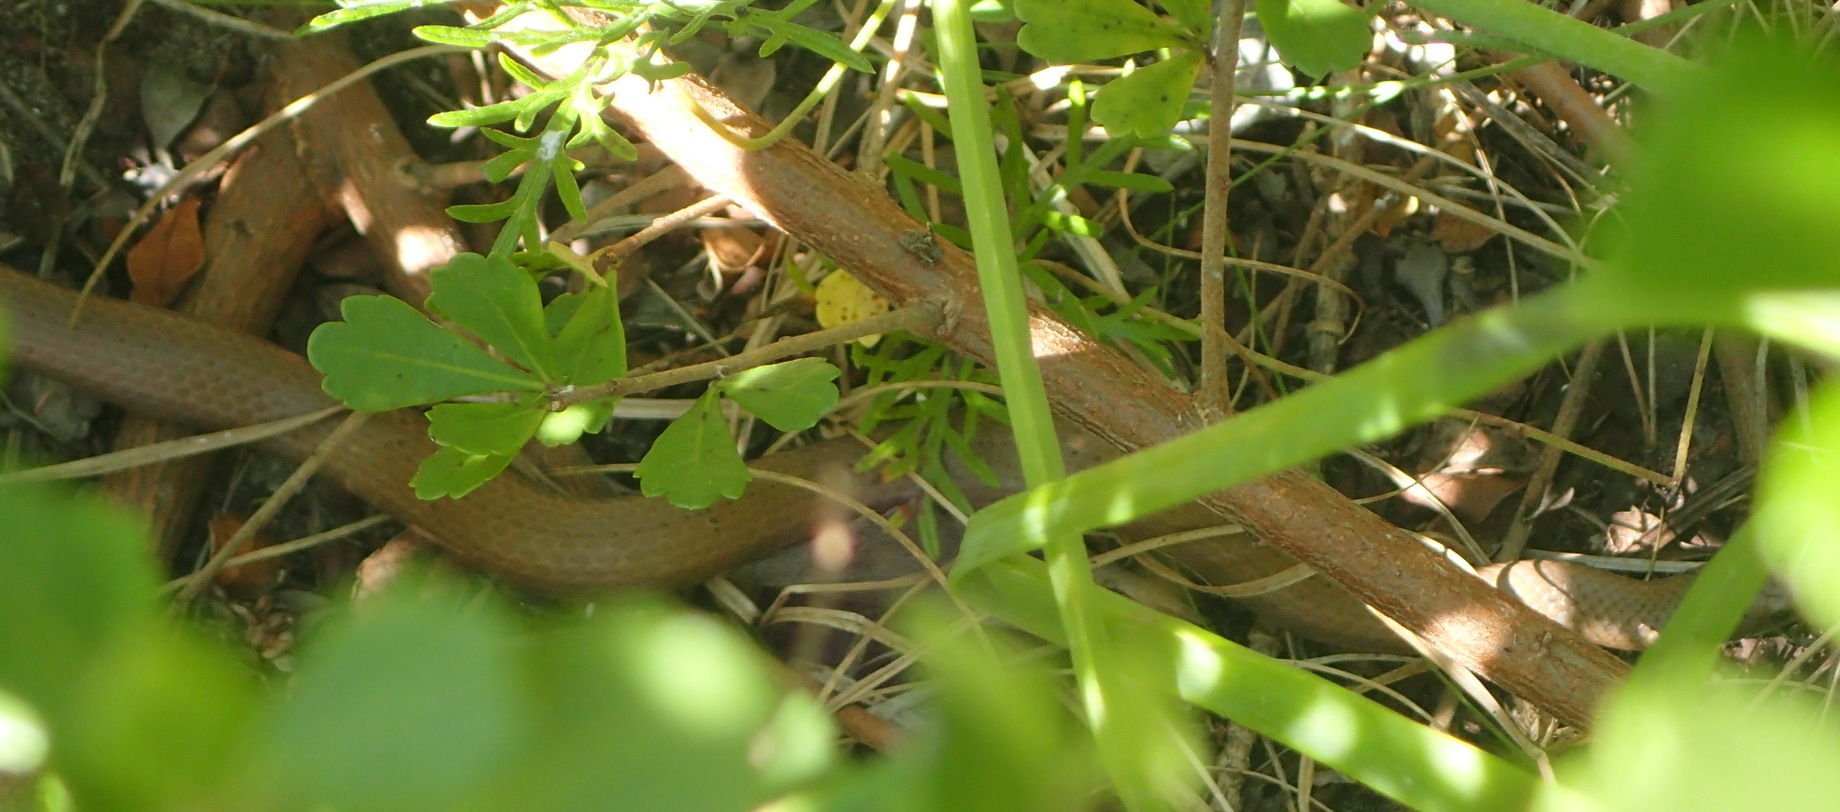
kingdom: Animalia
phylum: Chordata
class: Squamata
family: Pseudoxyrhophiidae
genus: Duberria
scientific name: Duberria lutrix
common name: Common slug eater
